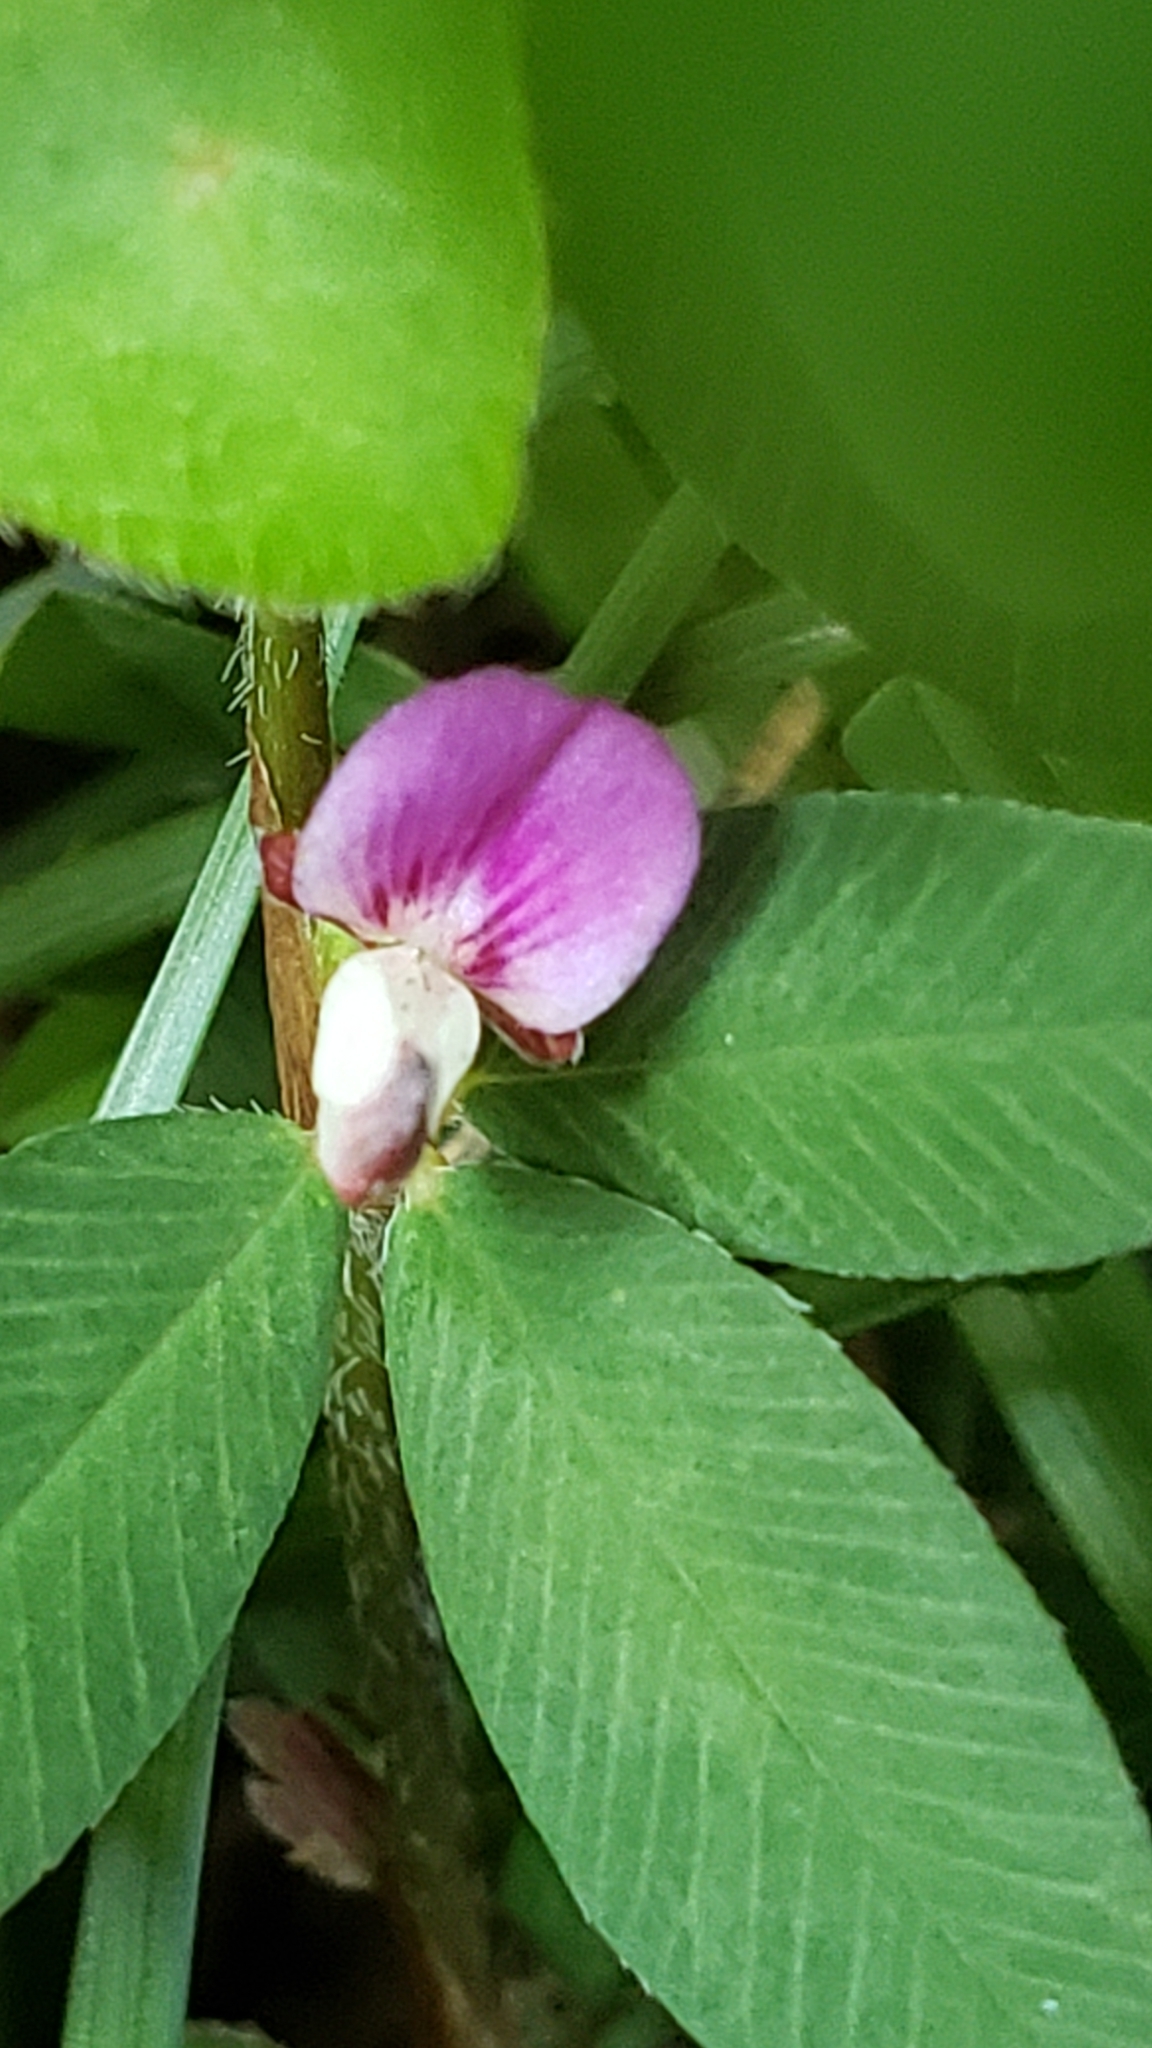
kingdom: Plantae
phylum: Tracheophyta
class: Magnoliopsida
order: Fabales
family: Fabaceae
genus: Kummerowia
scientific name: Kummerowia striata
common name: Japanese clover
